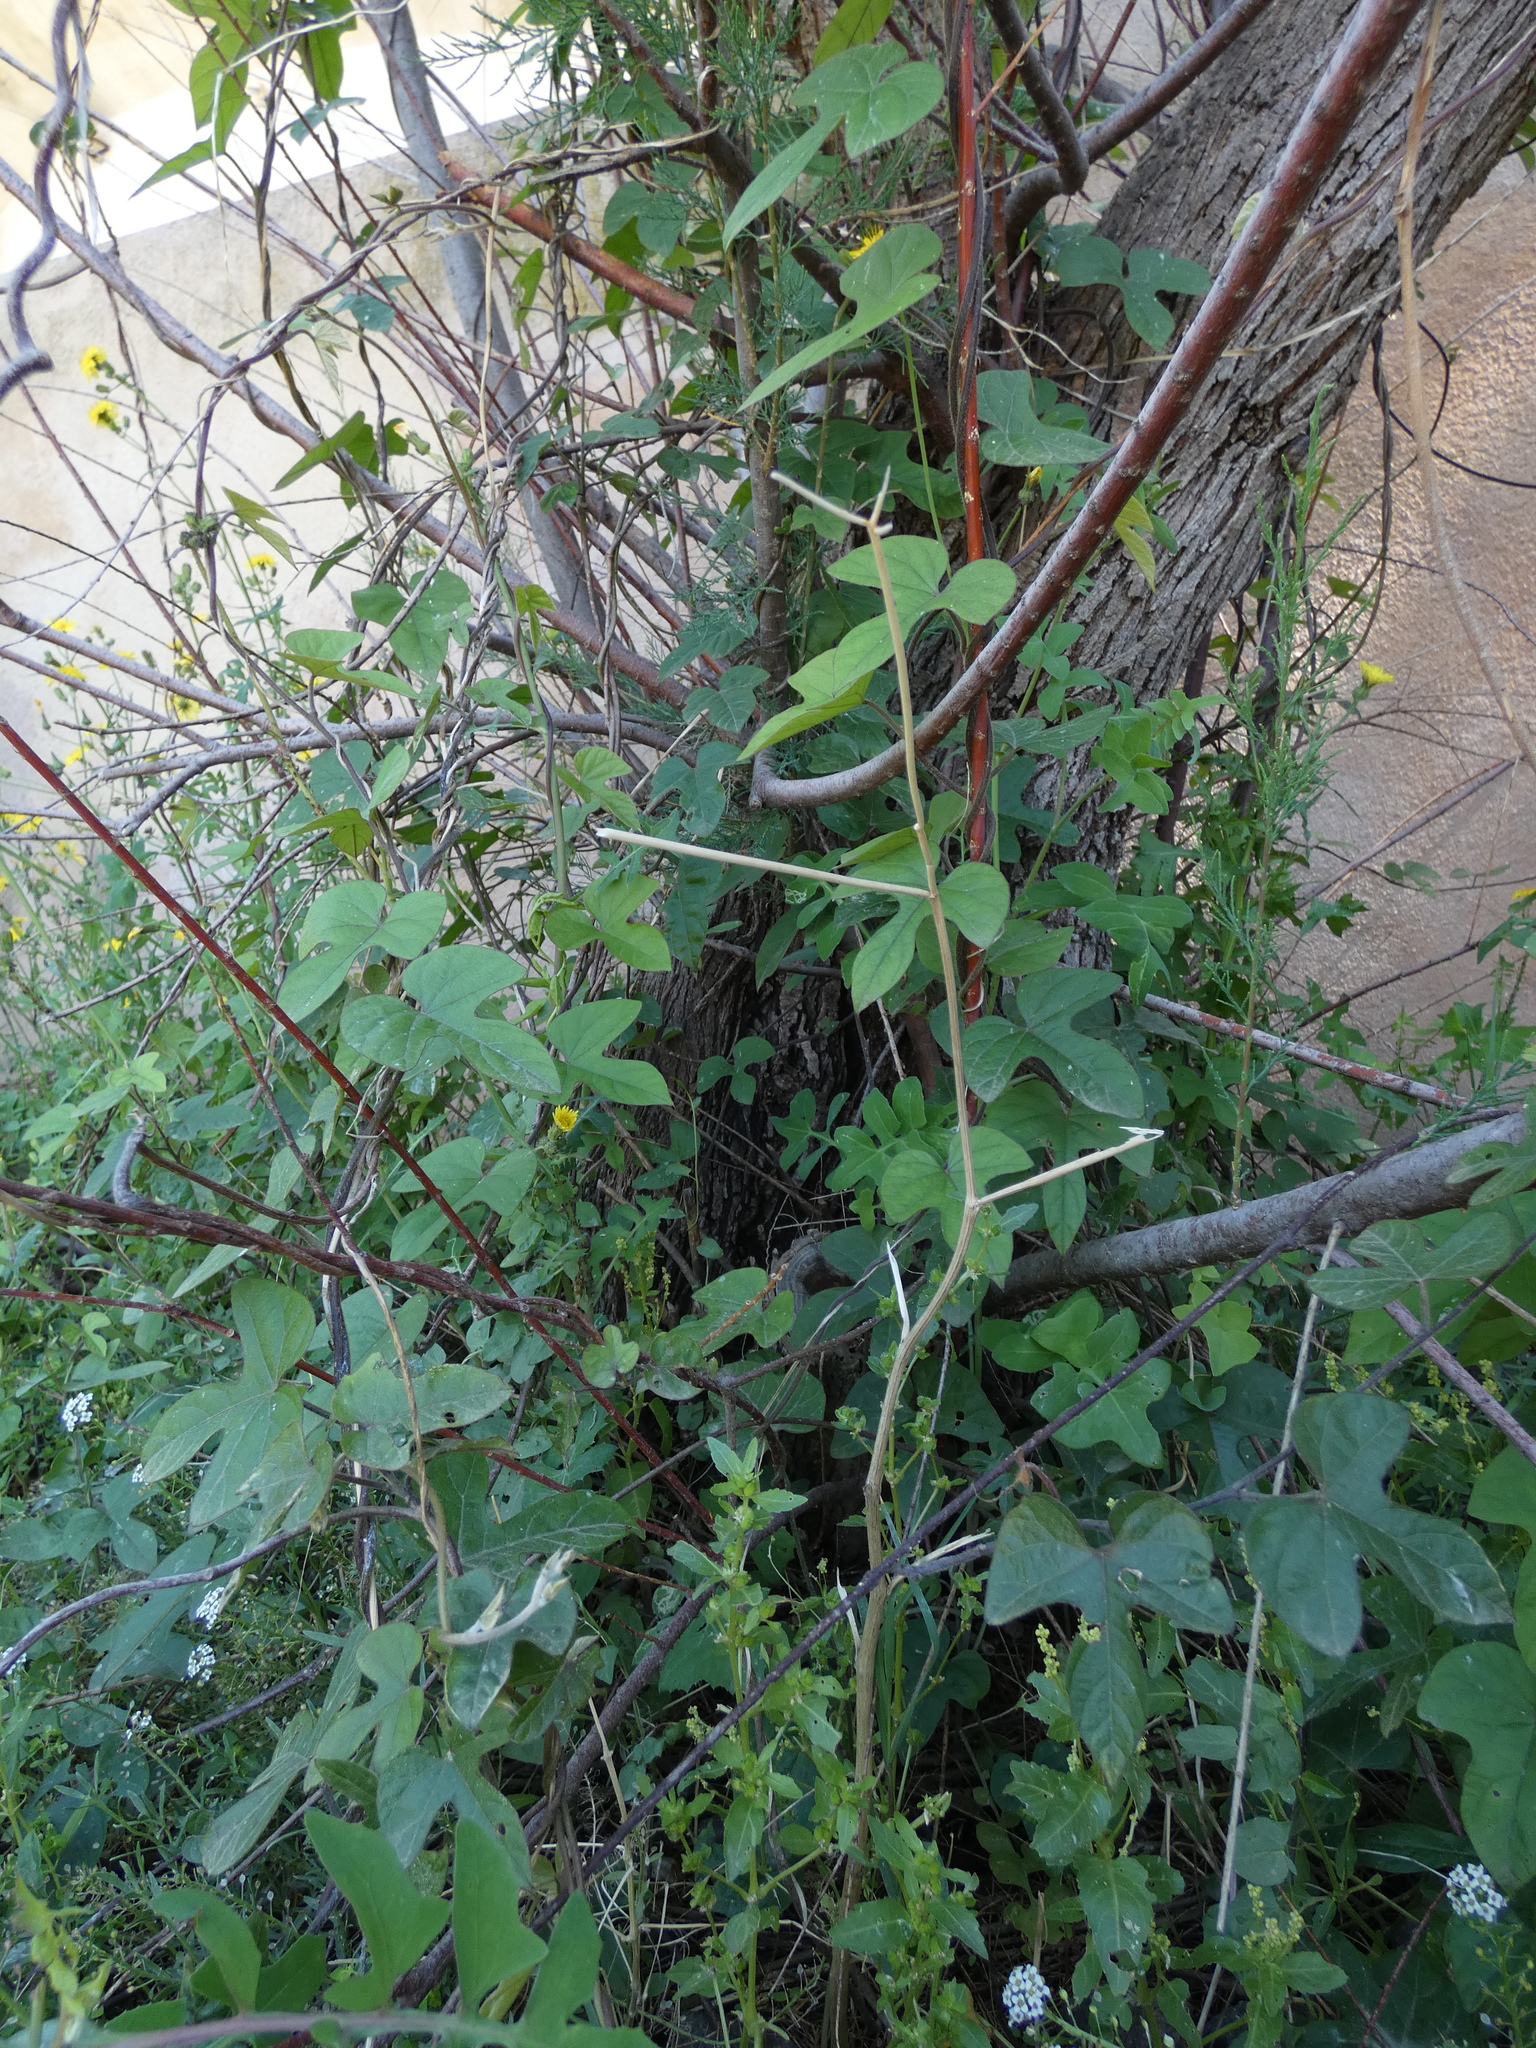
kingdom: Plantae
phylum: Tracheophyta
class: Magnoliopsida
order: Solanales
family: Convolvulaceae
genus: Ipomoea
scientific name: Ipomoea indica
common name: Blue dawnflower
